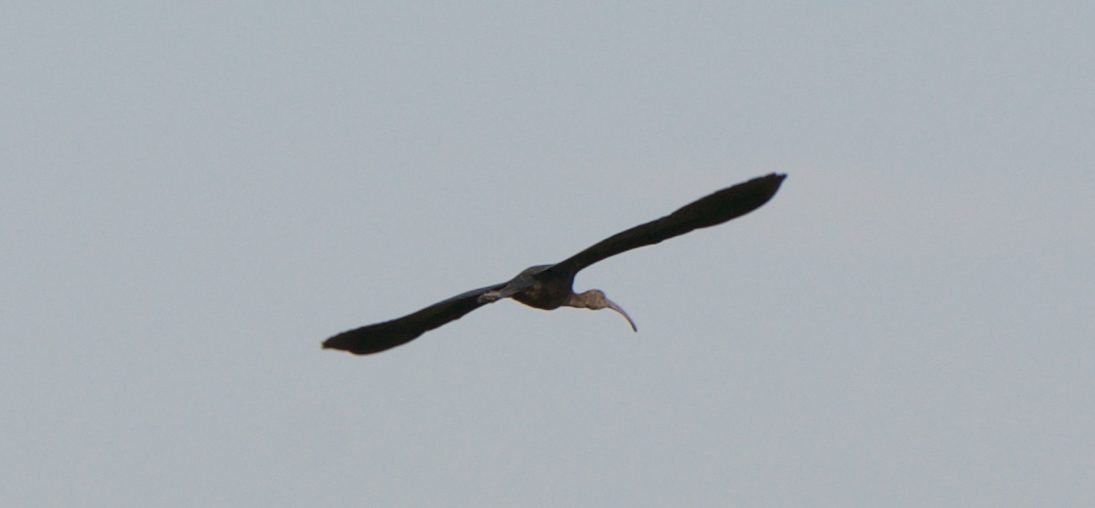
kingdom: Animalia
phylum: Chordata
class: Aves
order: Pelecaniformes
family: Threskiornithidae
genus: Plegadis
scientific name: Plegadis chihi
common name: White-faced ibis
